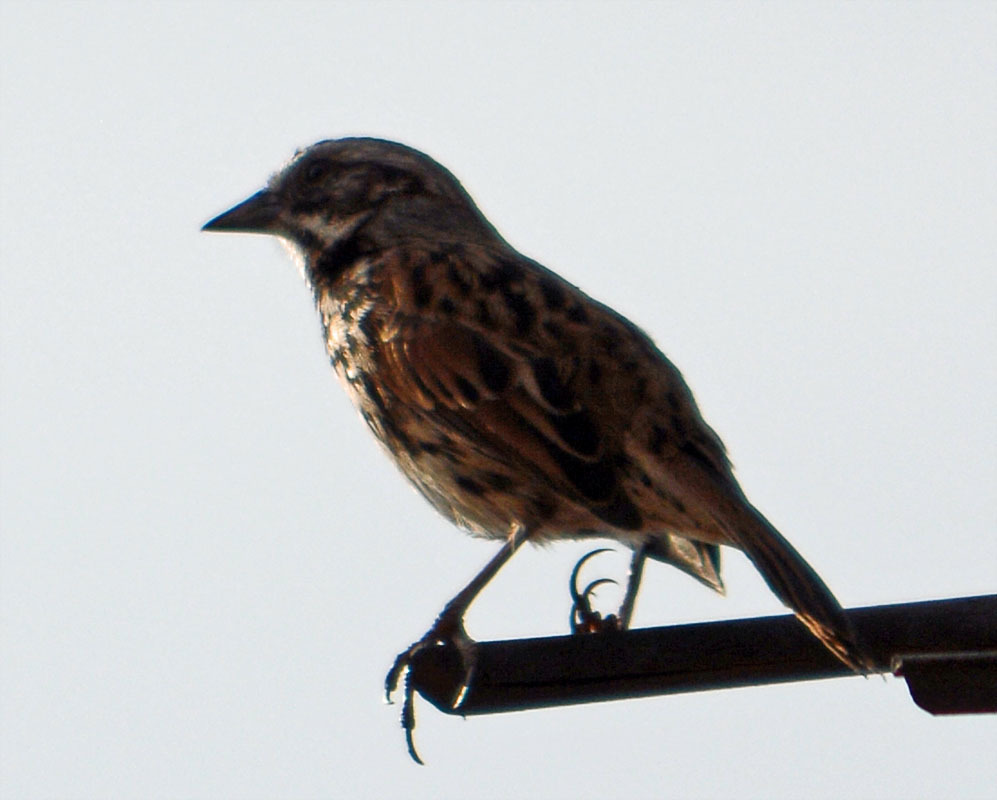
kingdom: Animalia
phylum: Chordata
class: Aves
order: Passeriformes
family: Passerellidae
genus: Melospiza
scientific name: Melospiza melodia
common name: Song sparrow
